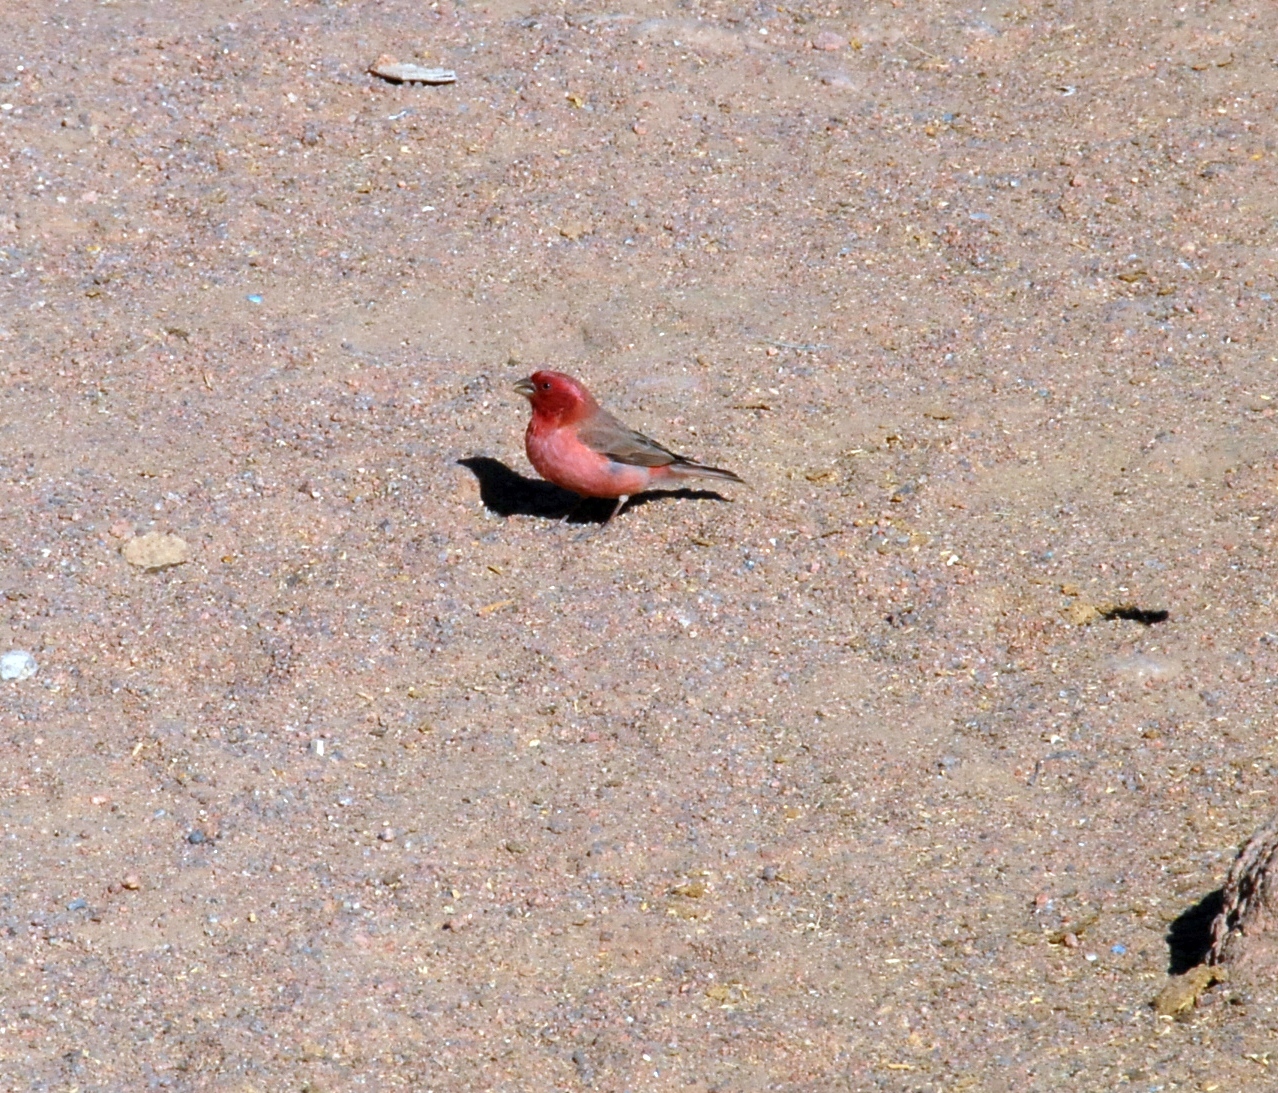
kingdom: Animalia
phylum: Chordata
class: Aves
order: Passeriformes
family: Fringillidae
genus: Carpodacus
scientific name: Carpodacus synoicus
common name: Sinai rosefinch
